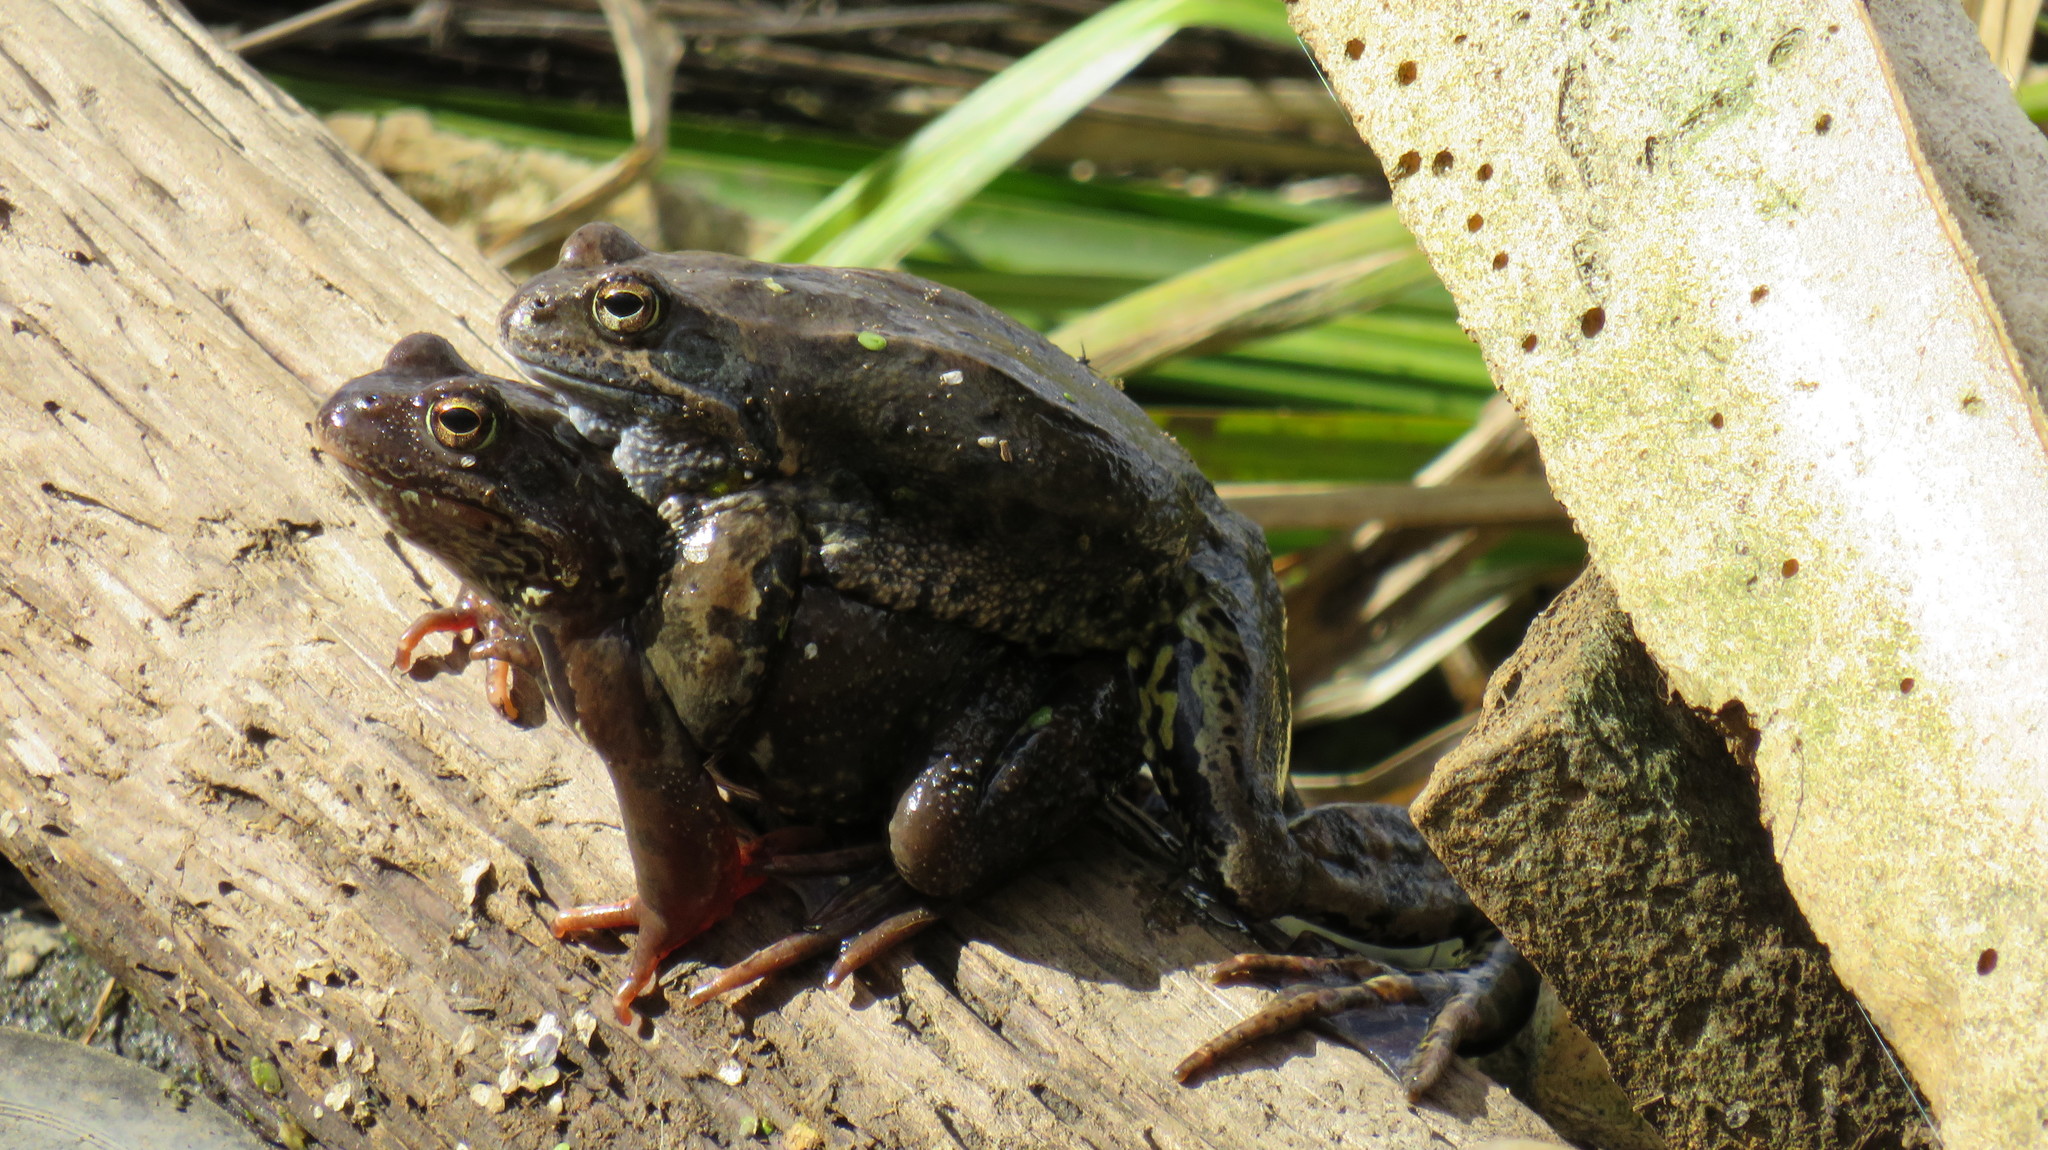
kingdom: Animalia
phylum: Chordata
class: Amphibia
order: Anura
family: Ranidae
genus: Rana
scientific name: Rana temporaria
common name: Common frog
